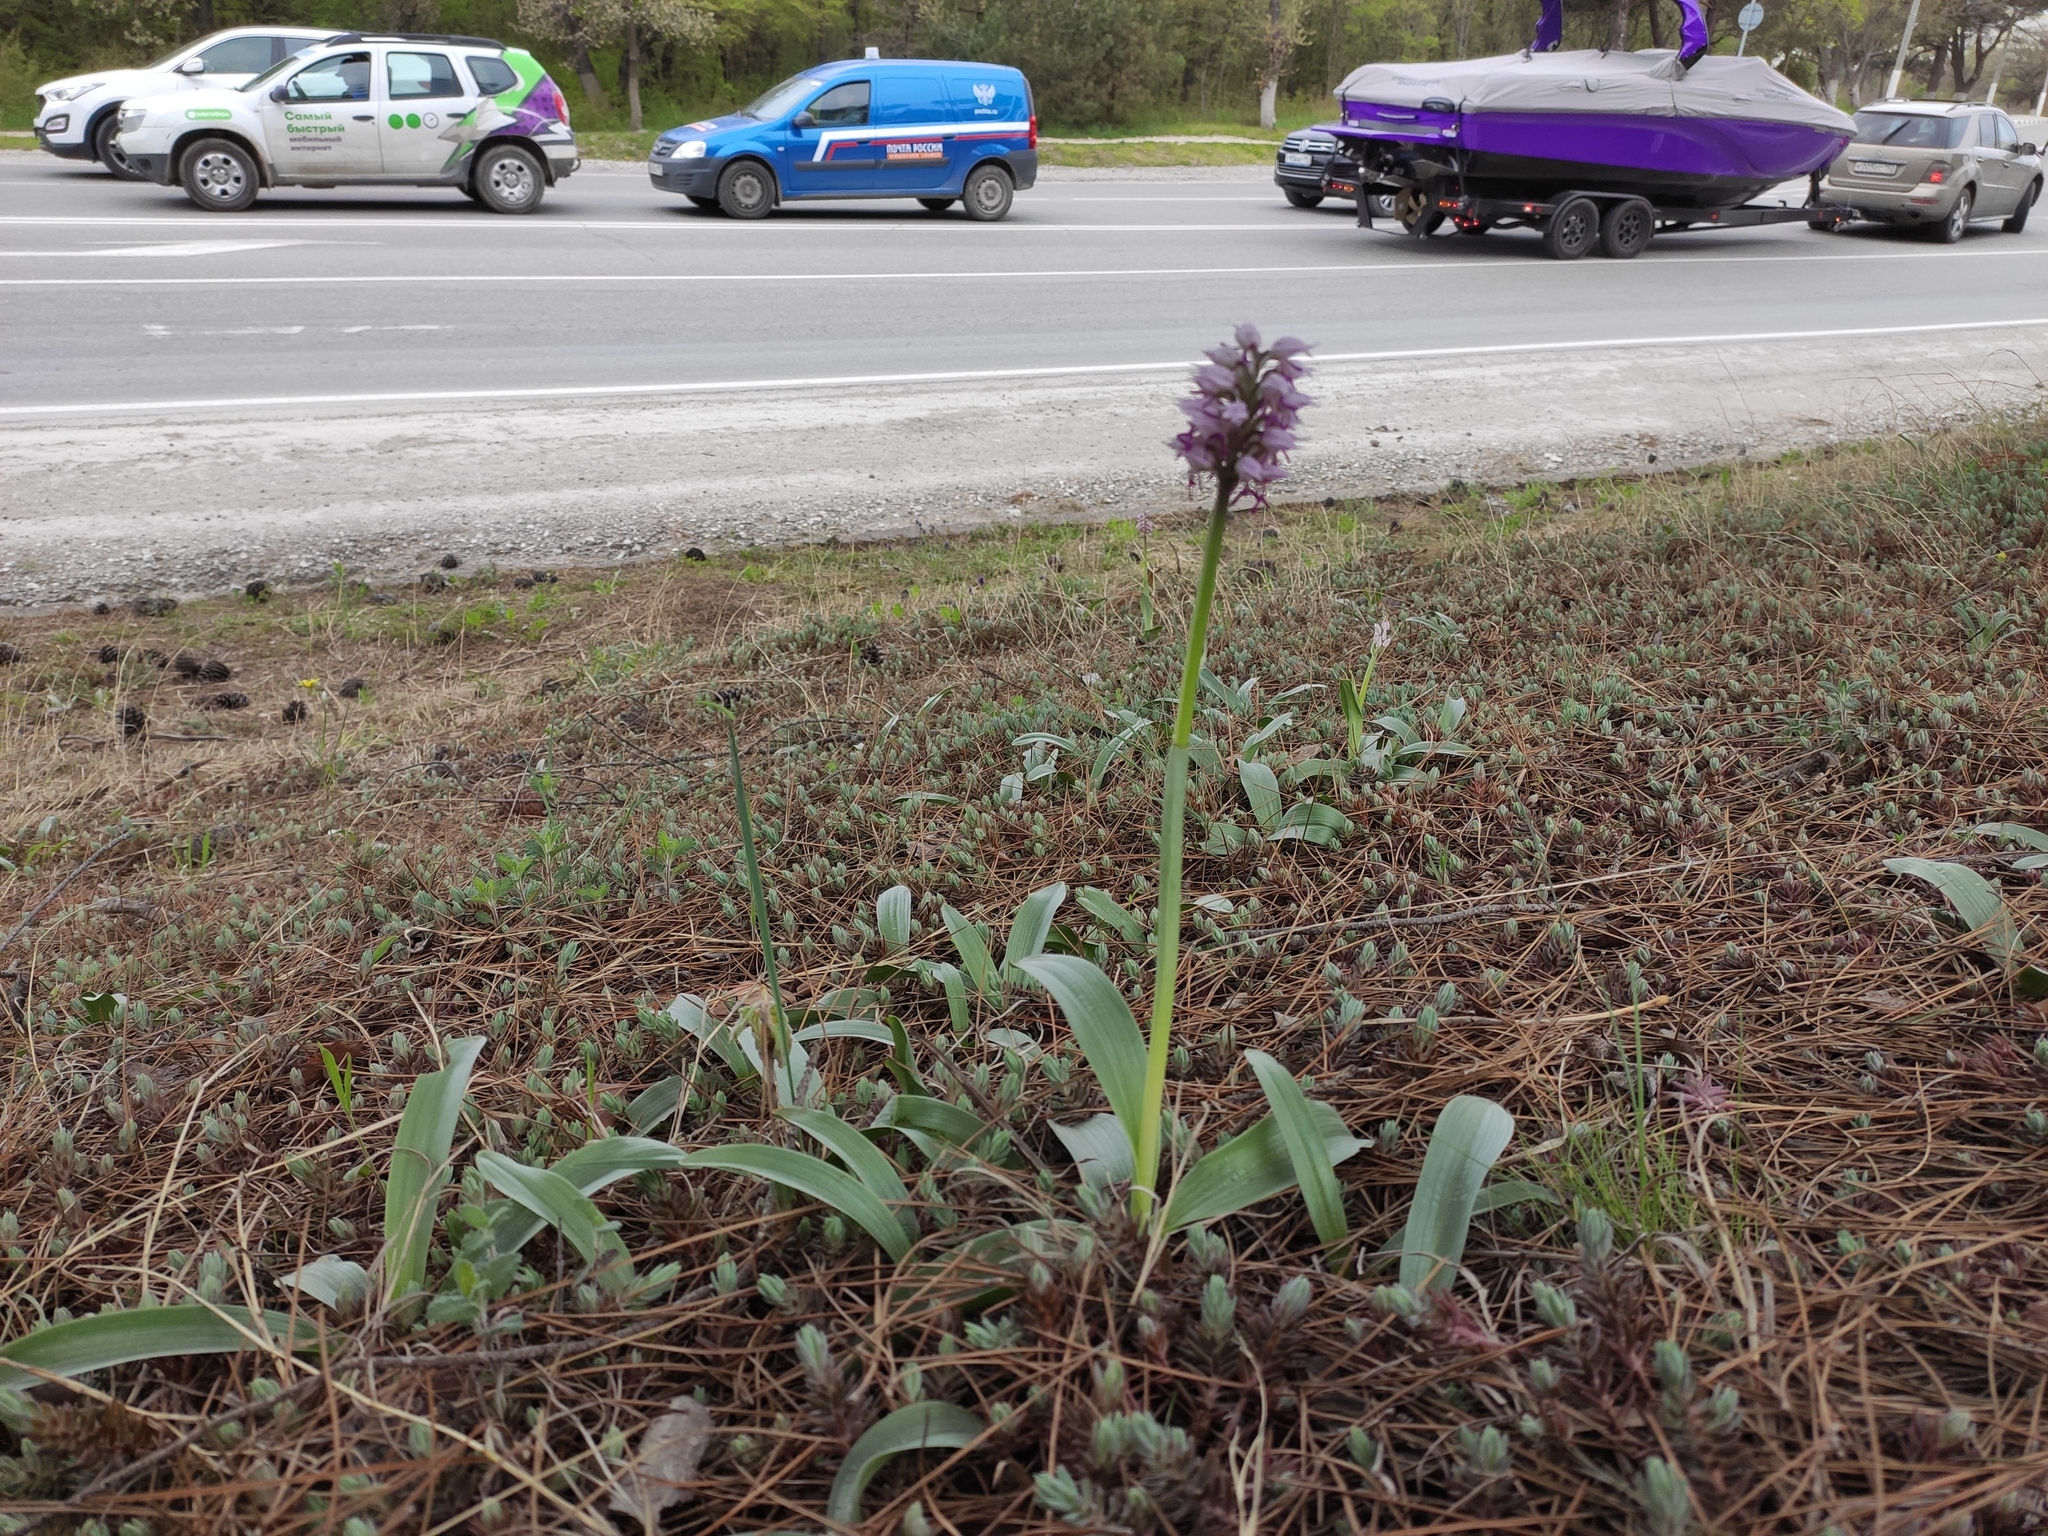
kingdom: Plantae
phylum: Tracheophyta
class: Liliopsida
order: Asparagales
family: Orchidaceae
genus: Orchis
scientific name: Orchis simia
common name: Monkey orchid
